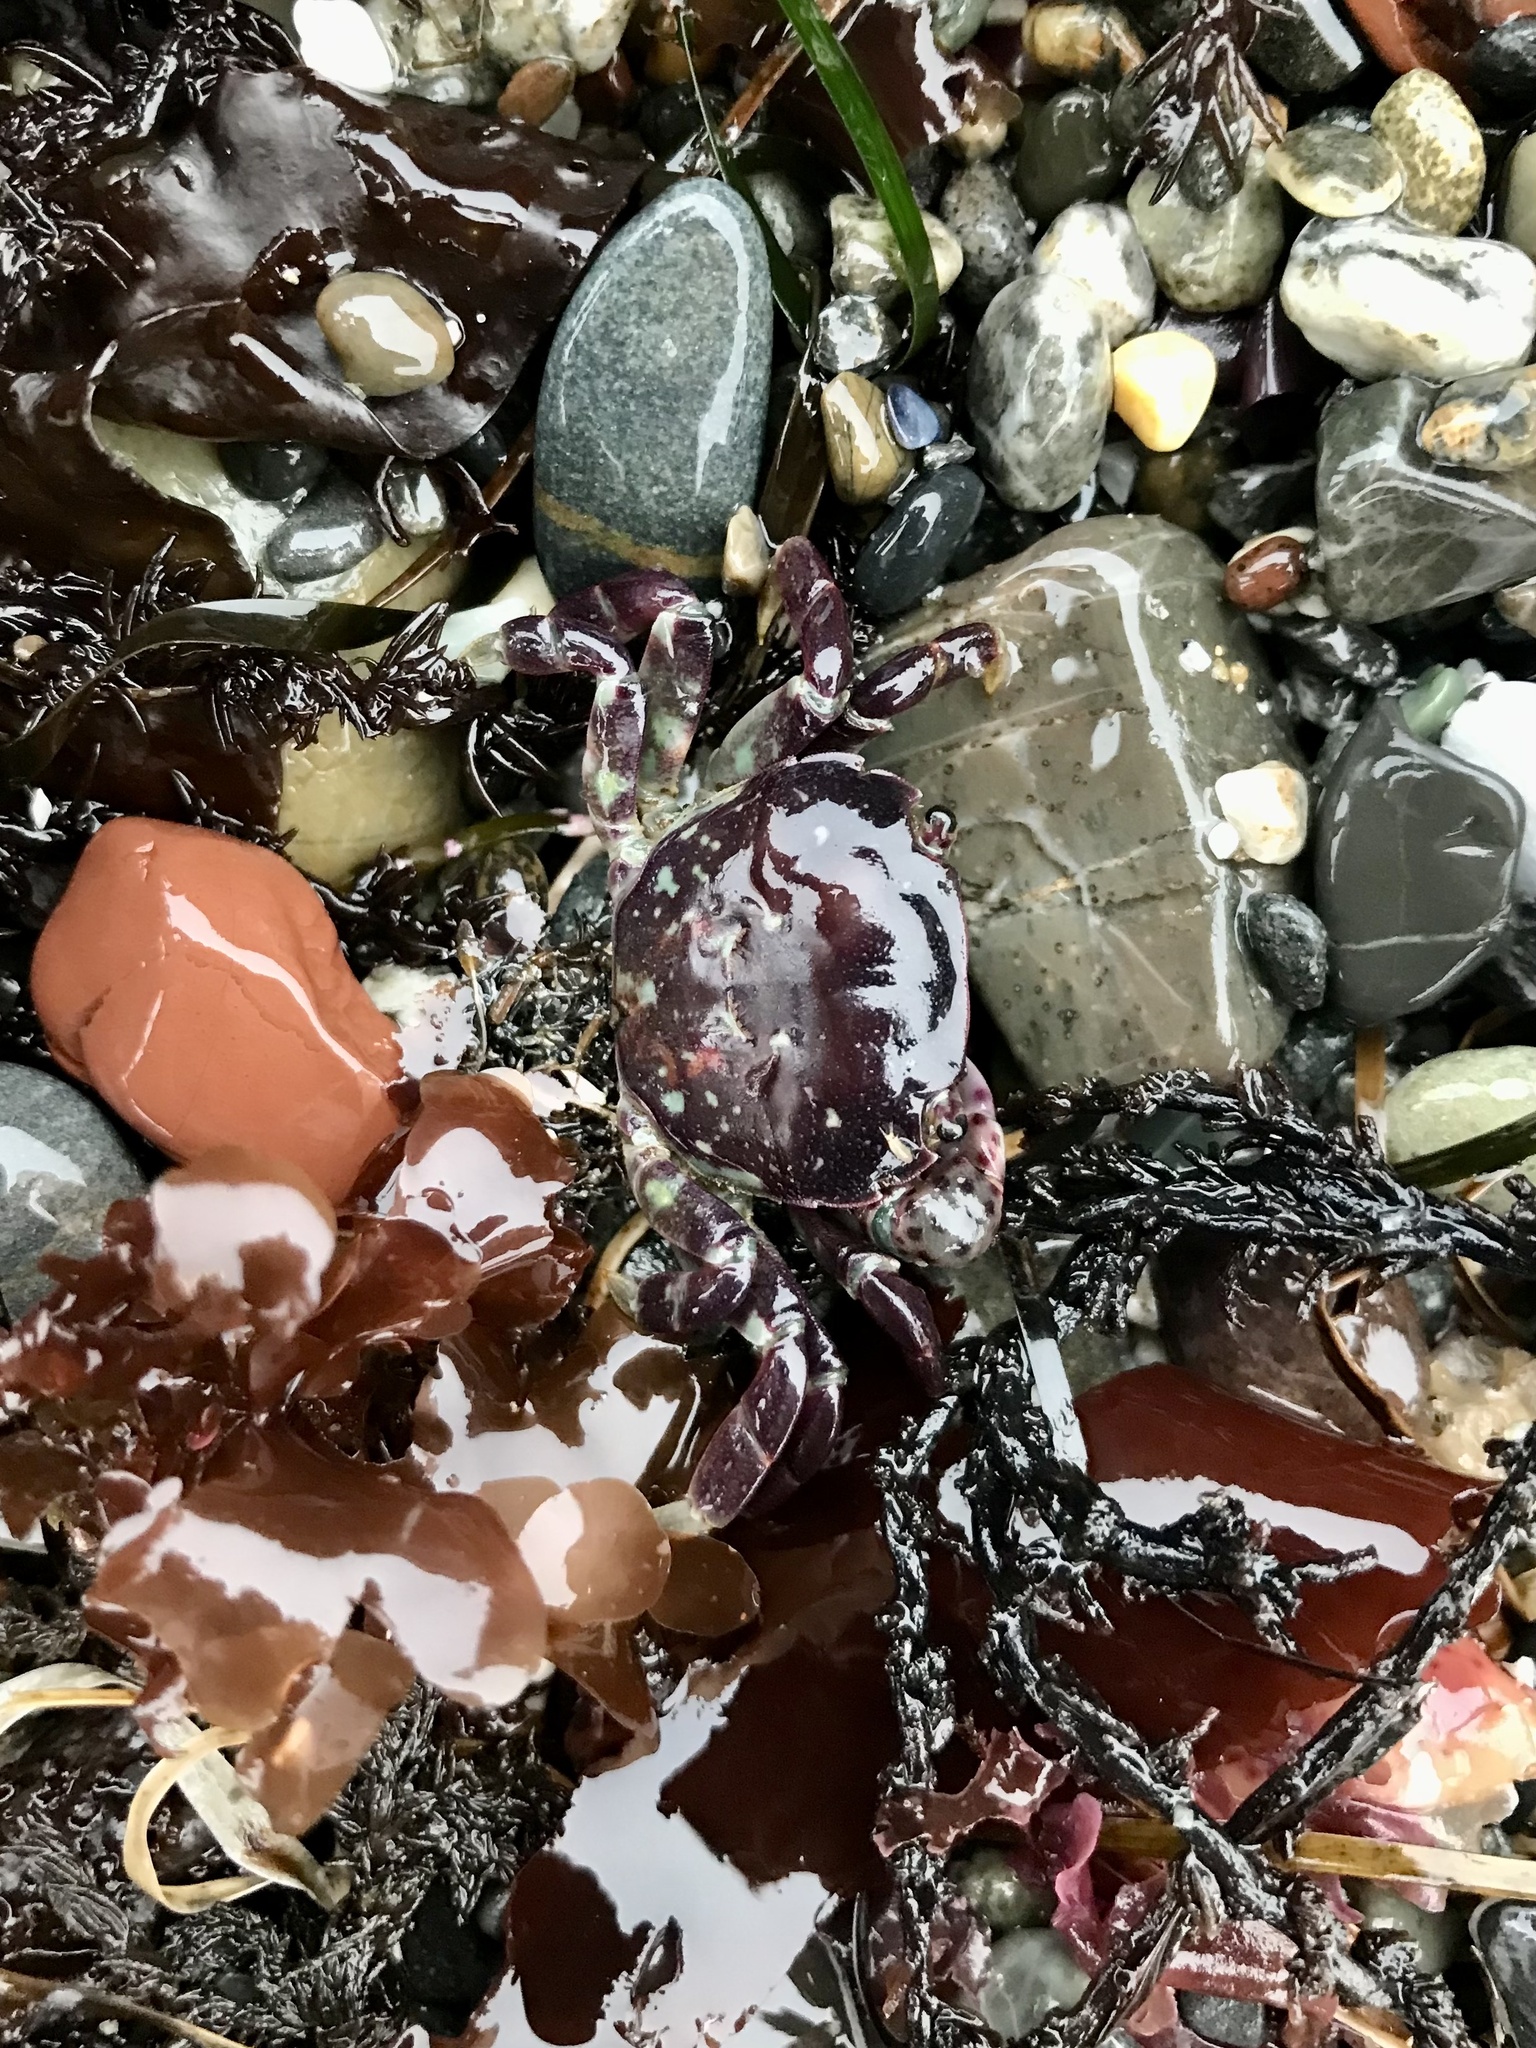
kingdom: Animalia
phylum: Arthropoda
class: Malacostraca
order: Decapoda
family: Varunidae
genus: Hemigrapsus
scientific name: Hemigrapsus nudus
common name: Purple shore crab
